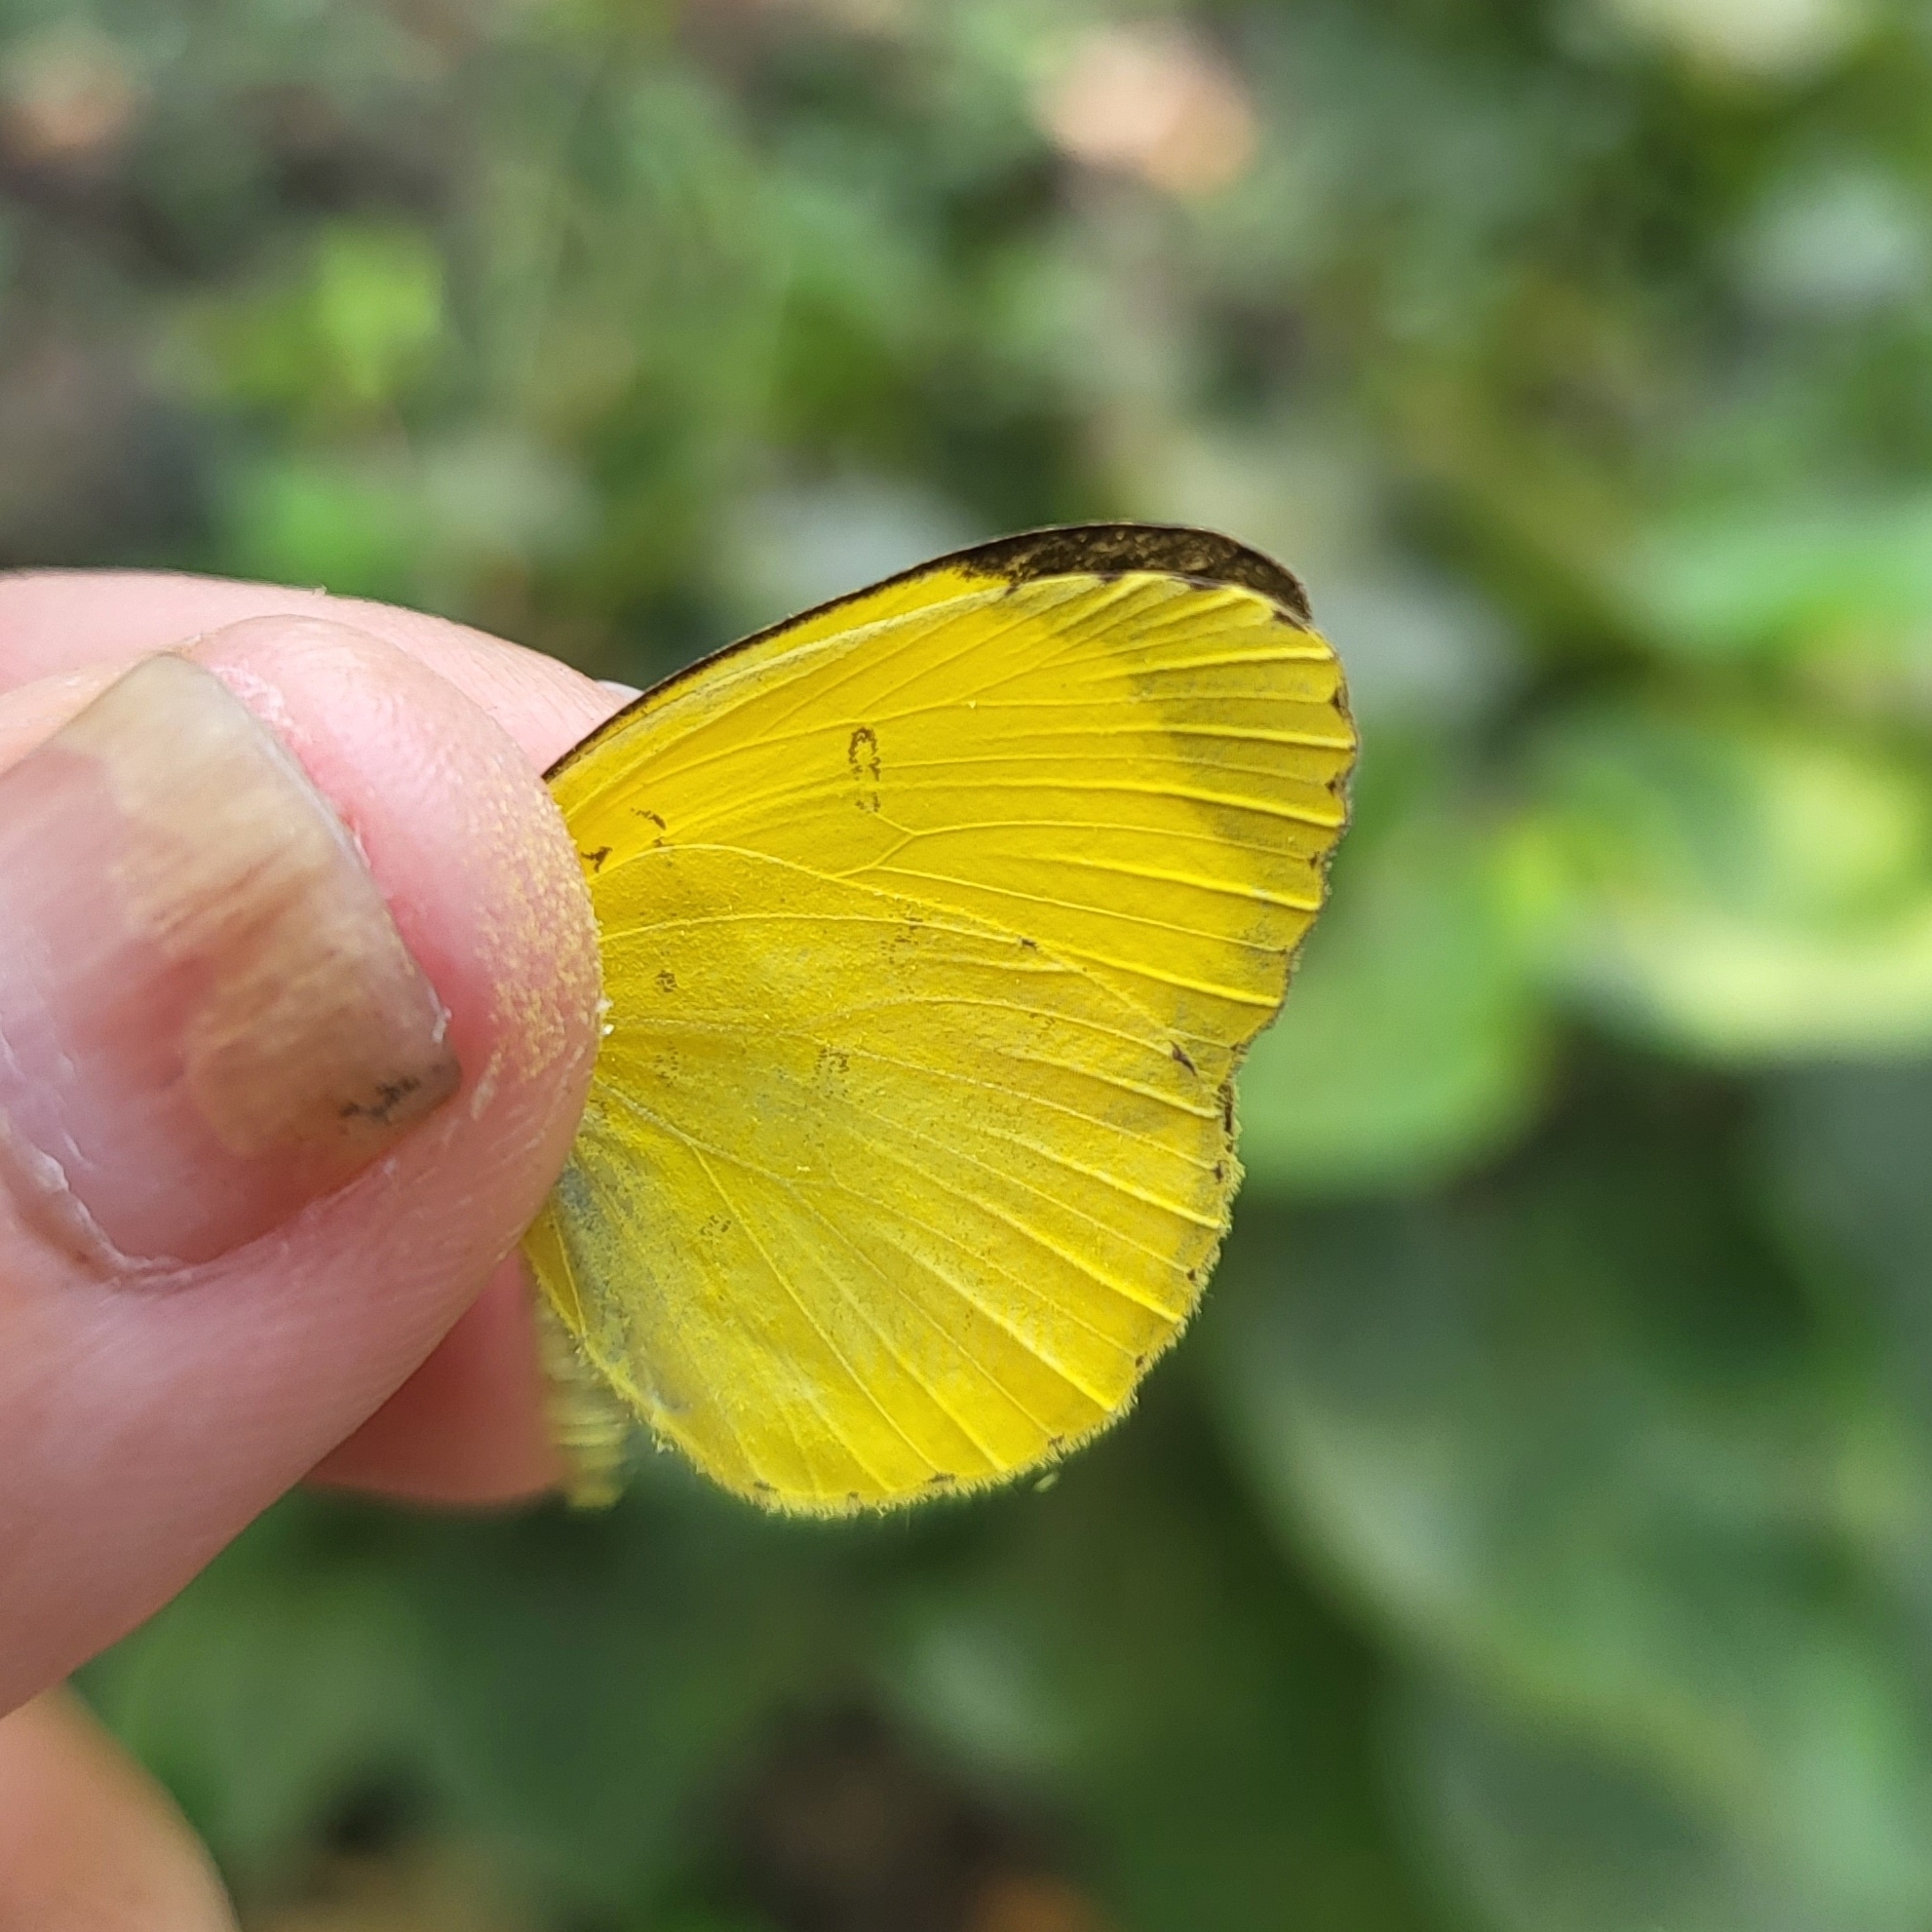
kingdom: Animalia
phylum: Arthropoda
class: Insecta
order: Lepidoptera
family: Pieridae
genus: Eurema
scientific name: Eurema blanda
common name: Three-spot grass yellow
